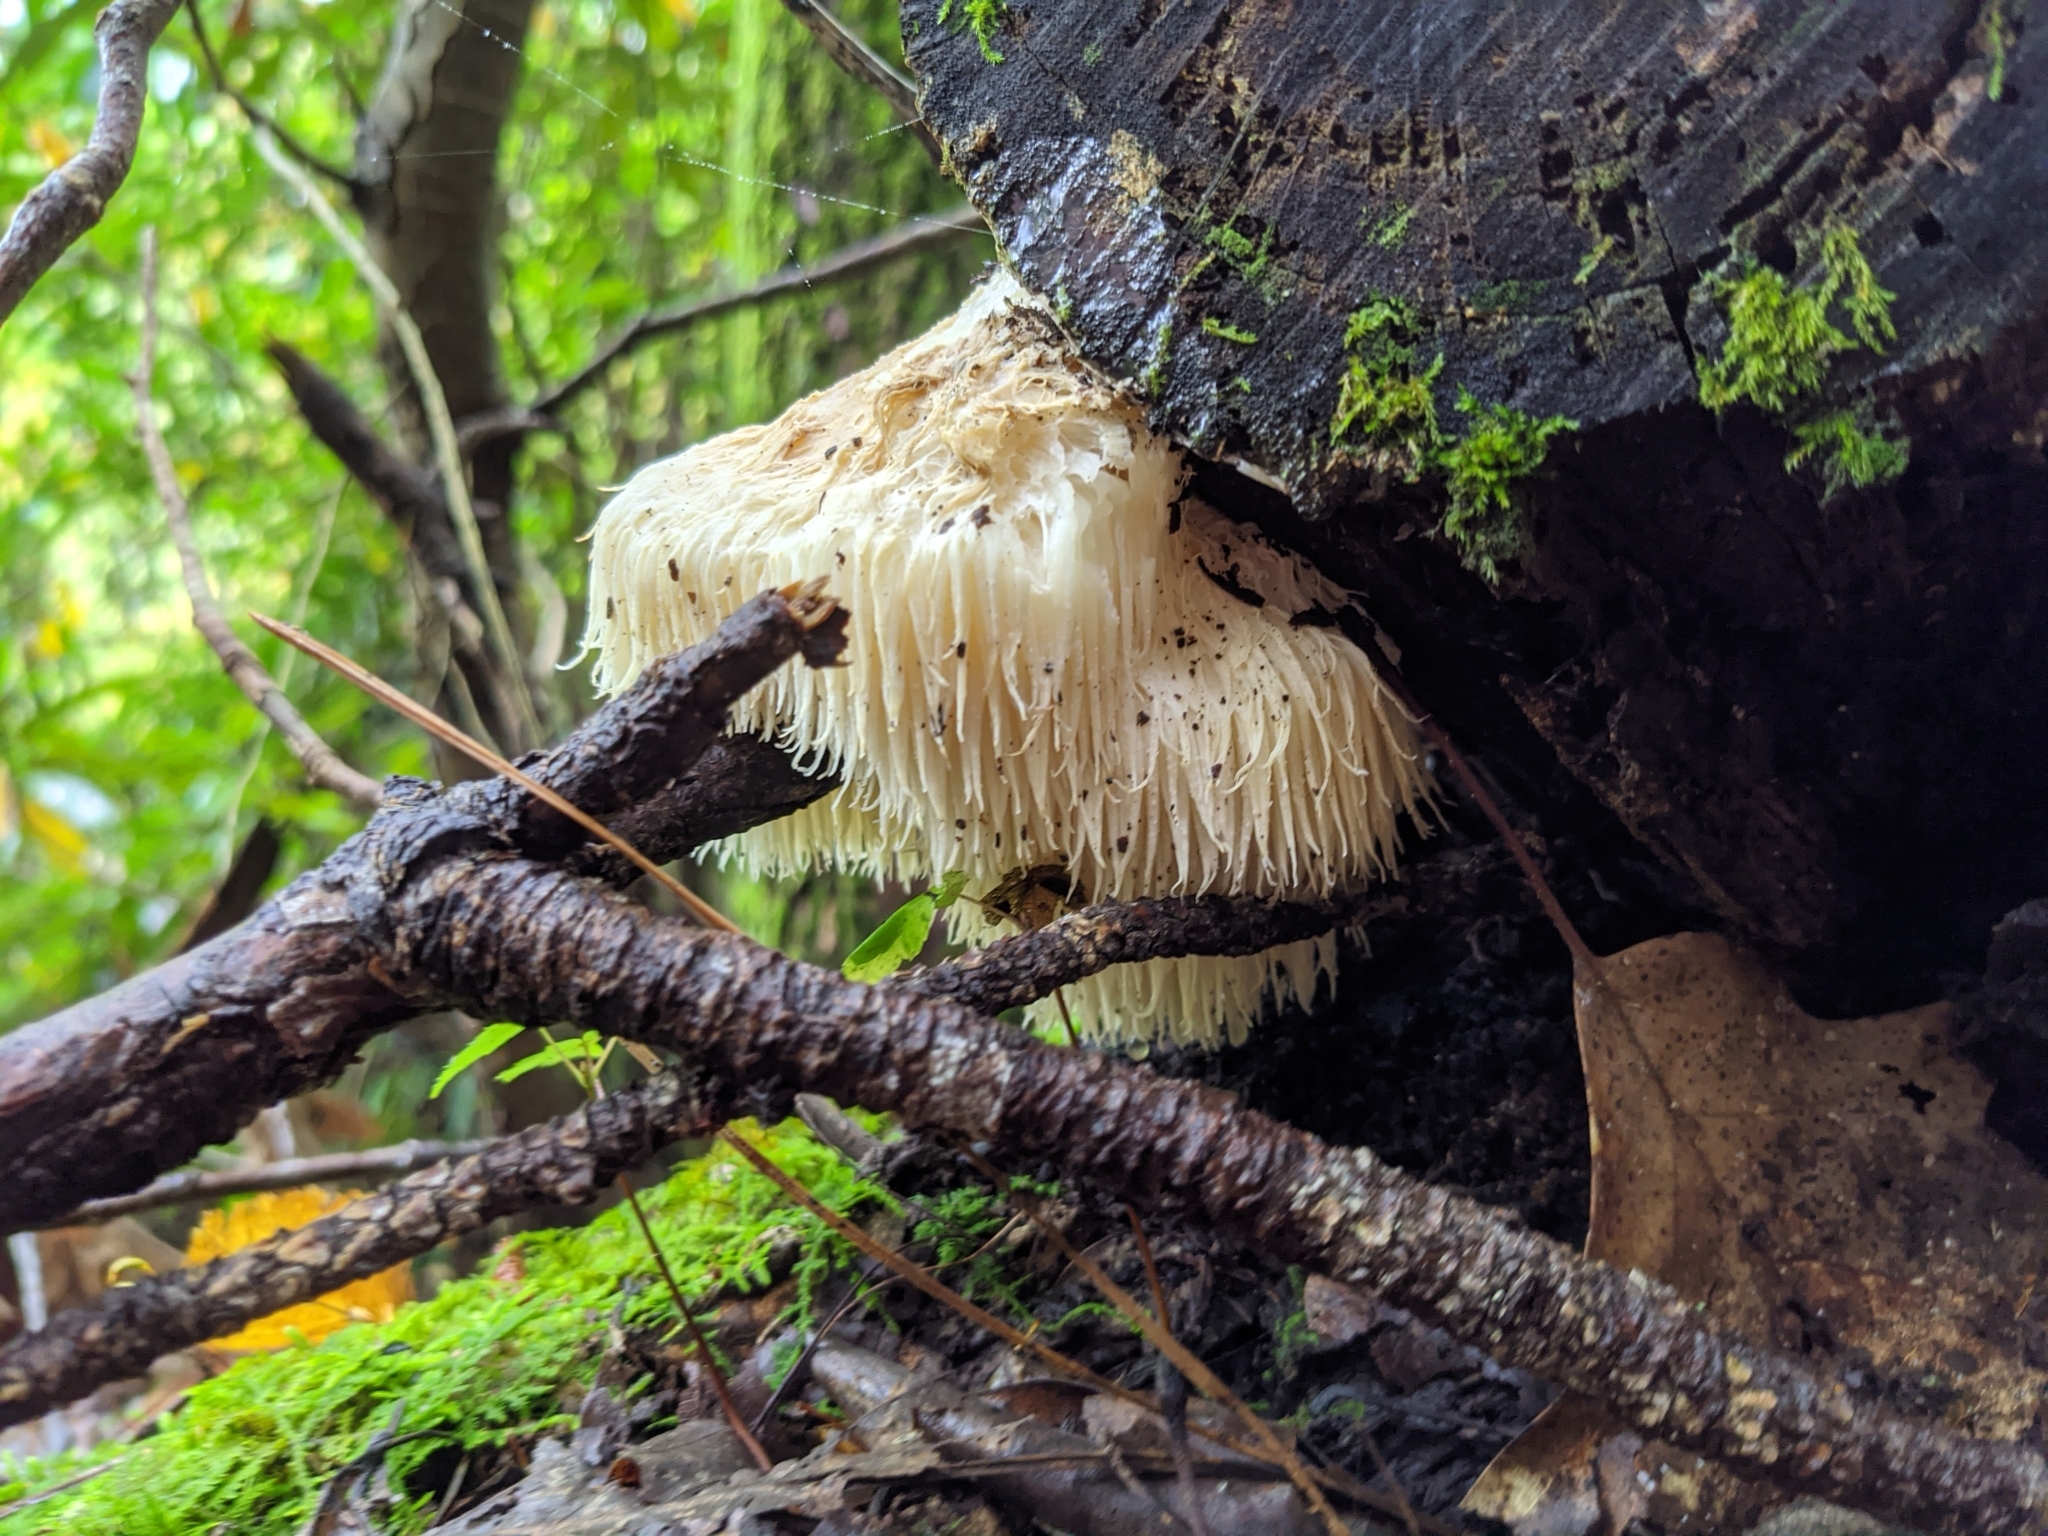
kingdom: Fungi
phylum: Basidiomycota
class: Agaricomycetes
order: Russulales
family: Hericiaceae
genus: Hericium
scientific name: Hericium erinaceus
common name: Bearded tooth
